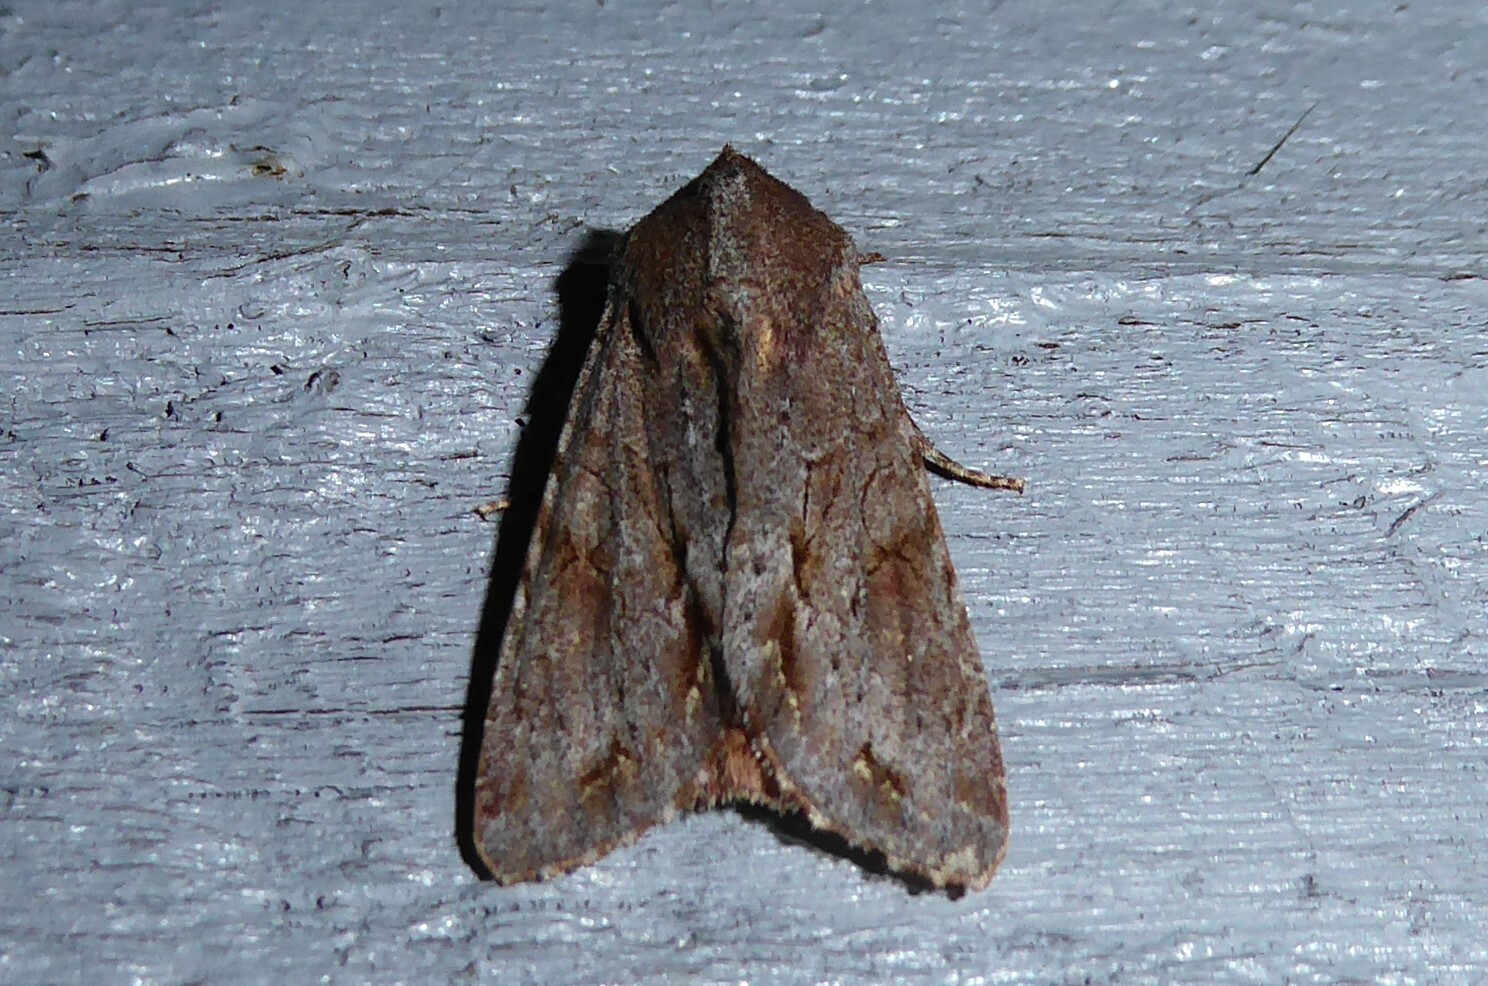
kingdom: Animalia
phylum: Arthropoda
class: Insecta
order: Lepidoptera
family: Noctuidae
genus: Ichneutica
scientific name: Ichneutica
